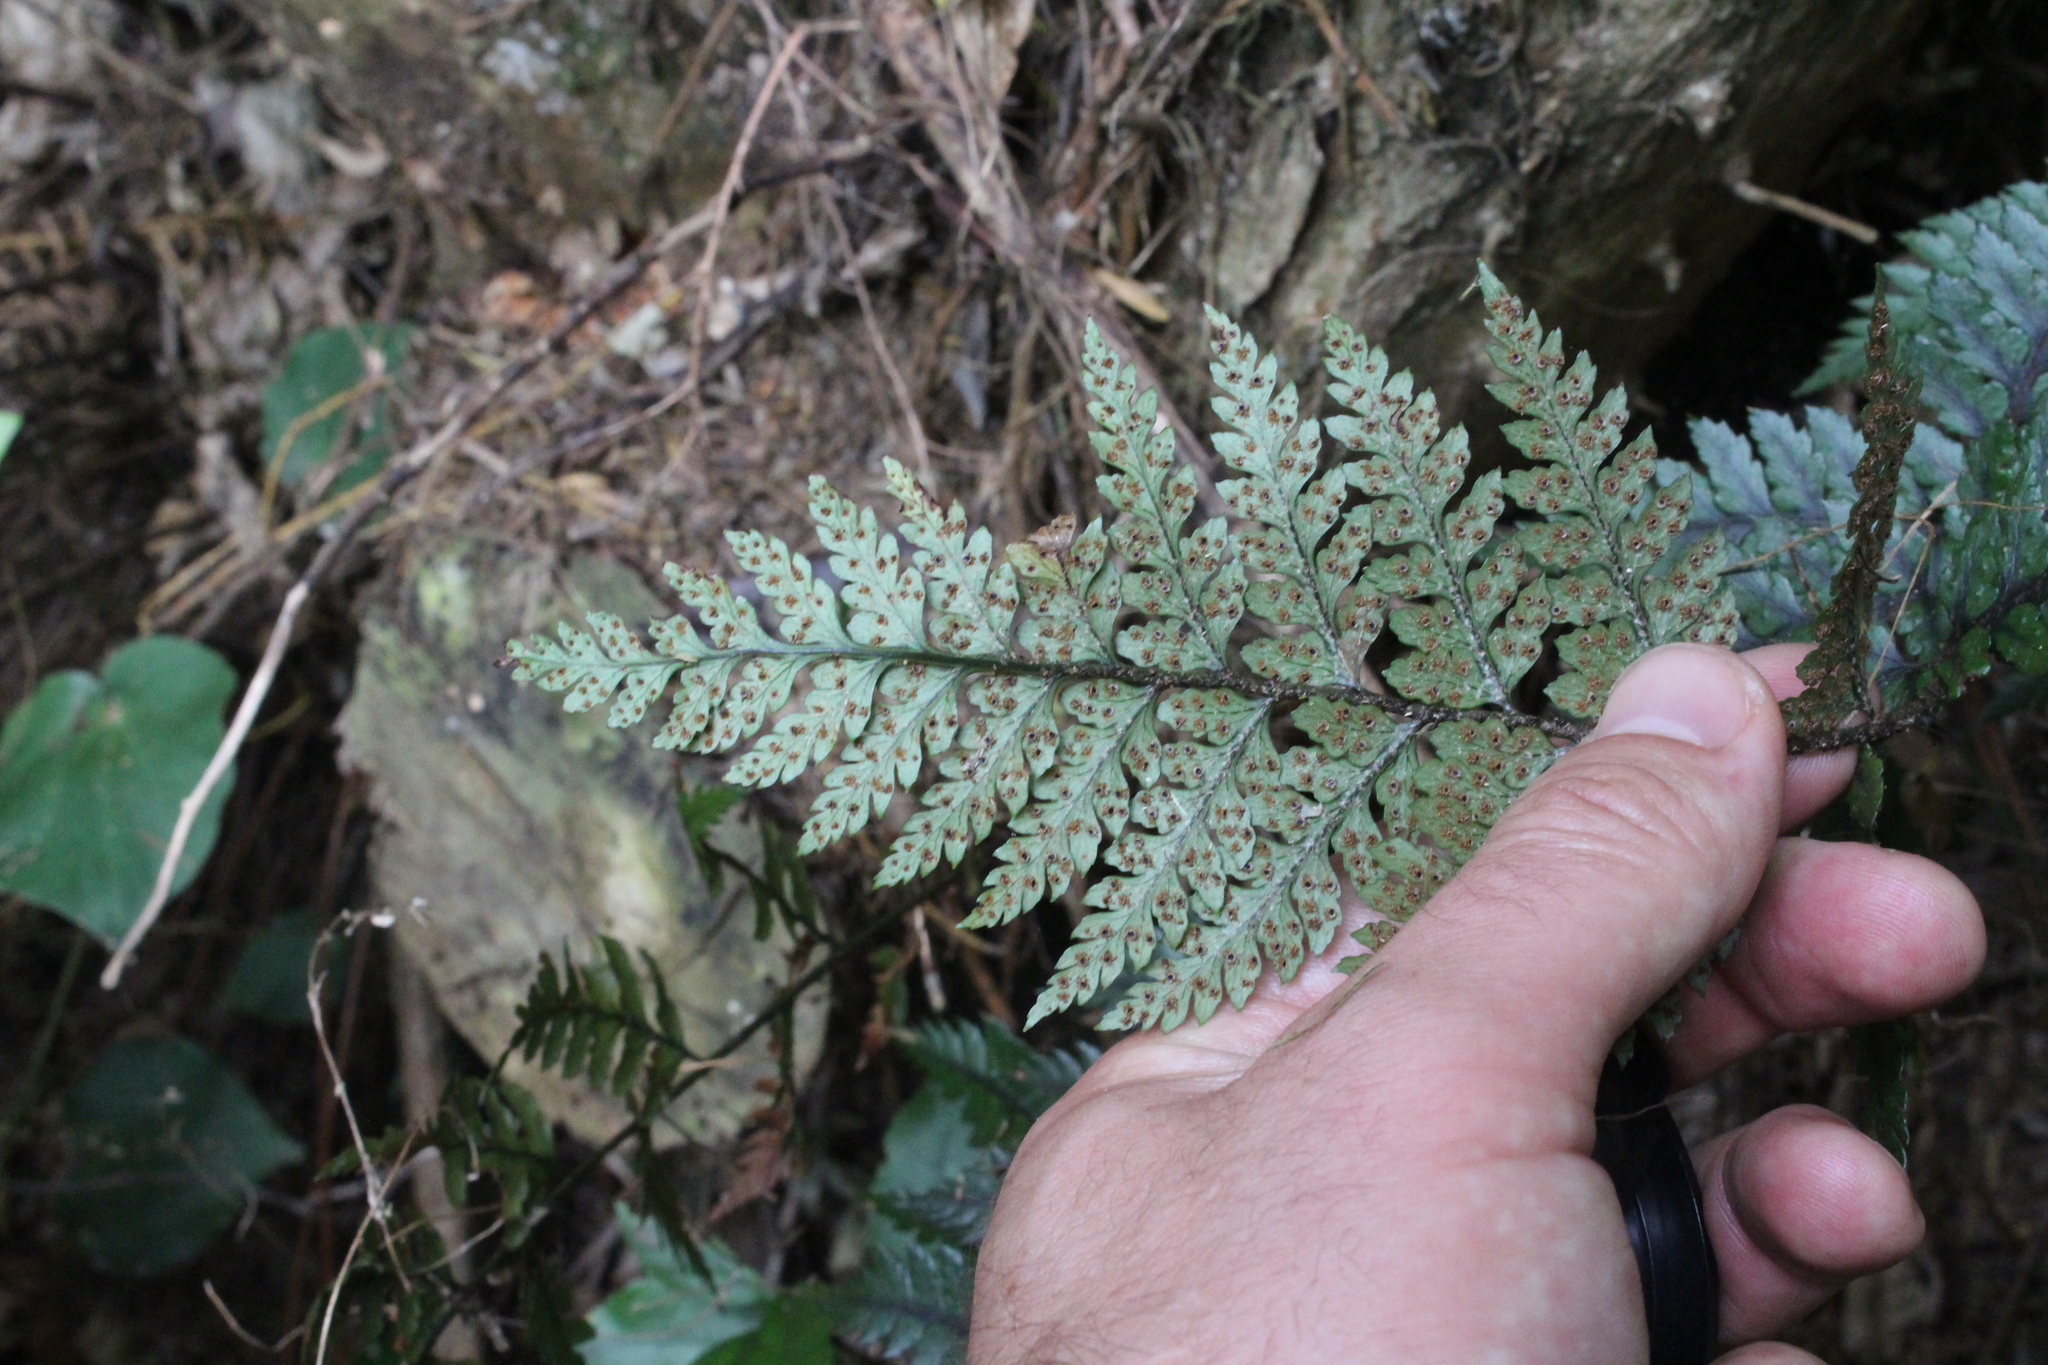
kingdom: Plantae
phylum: Tracheophyta
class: Polypodiopsida
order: Polypodiales
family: Dryopteridaceae
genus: Polystichum
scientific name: Polystichum neozelandicum
